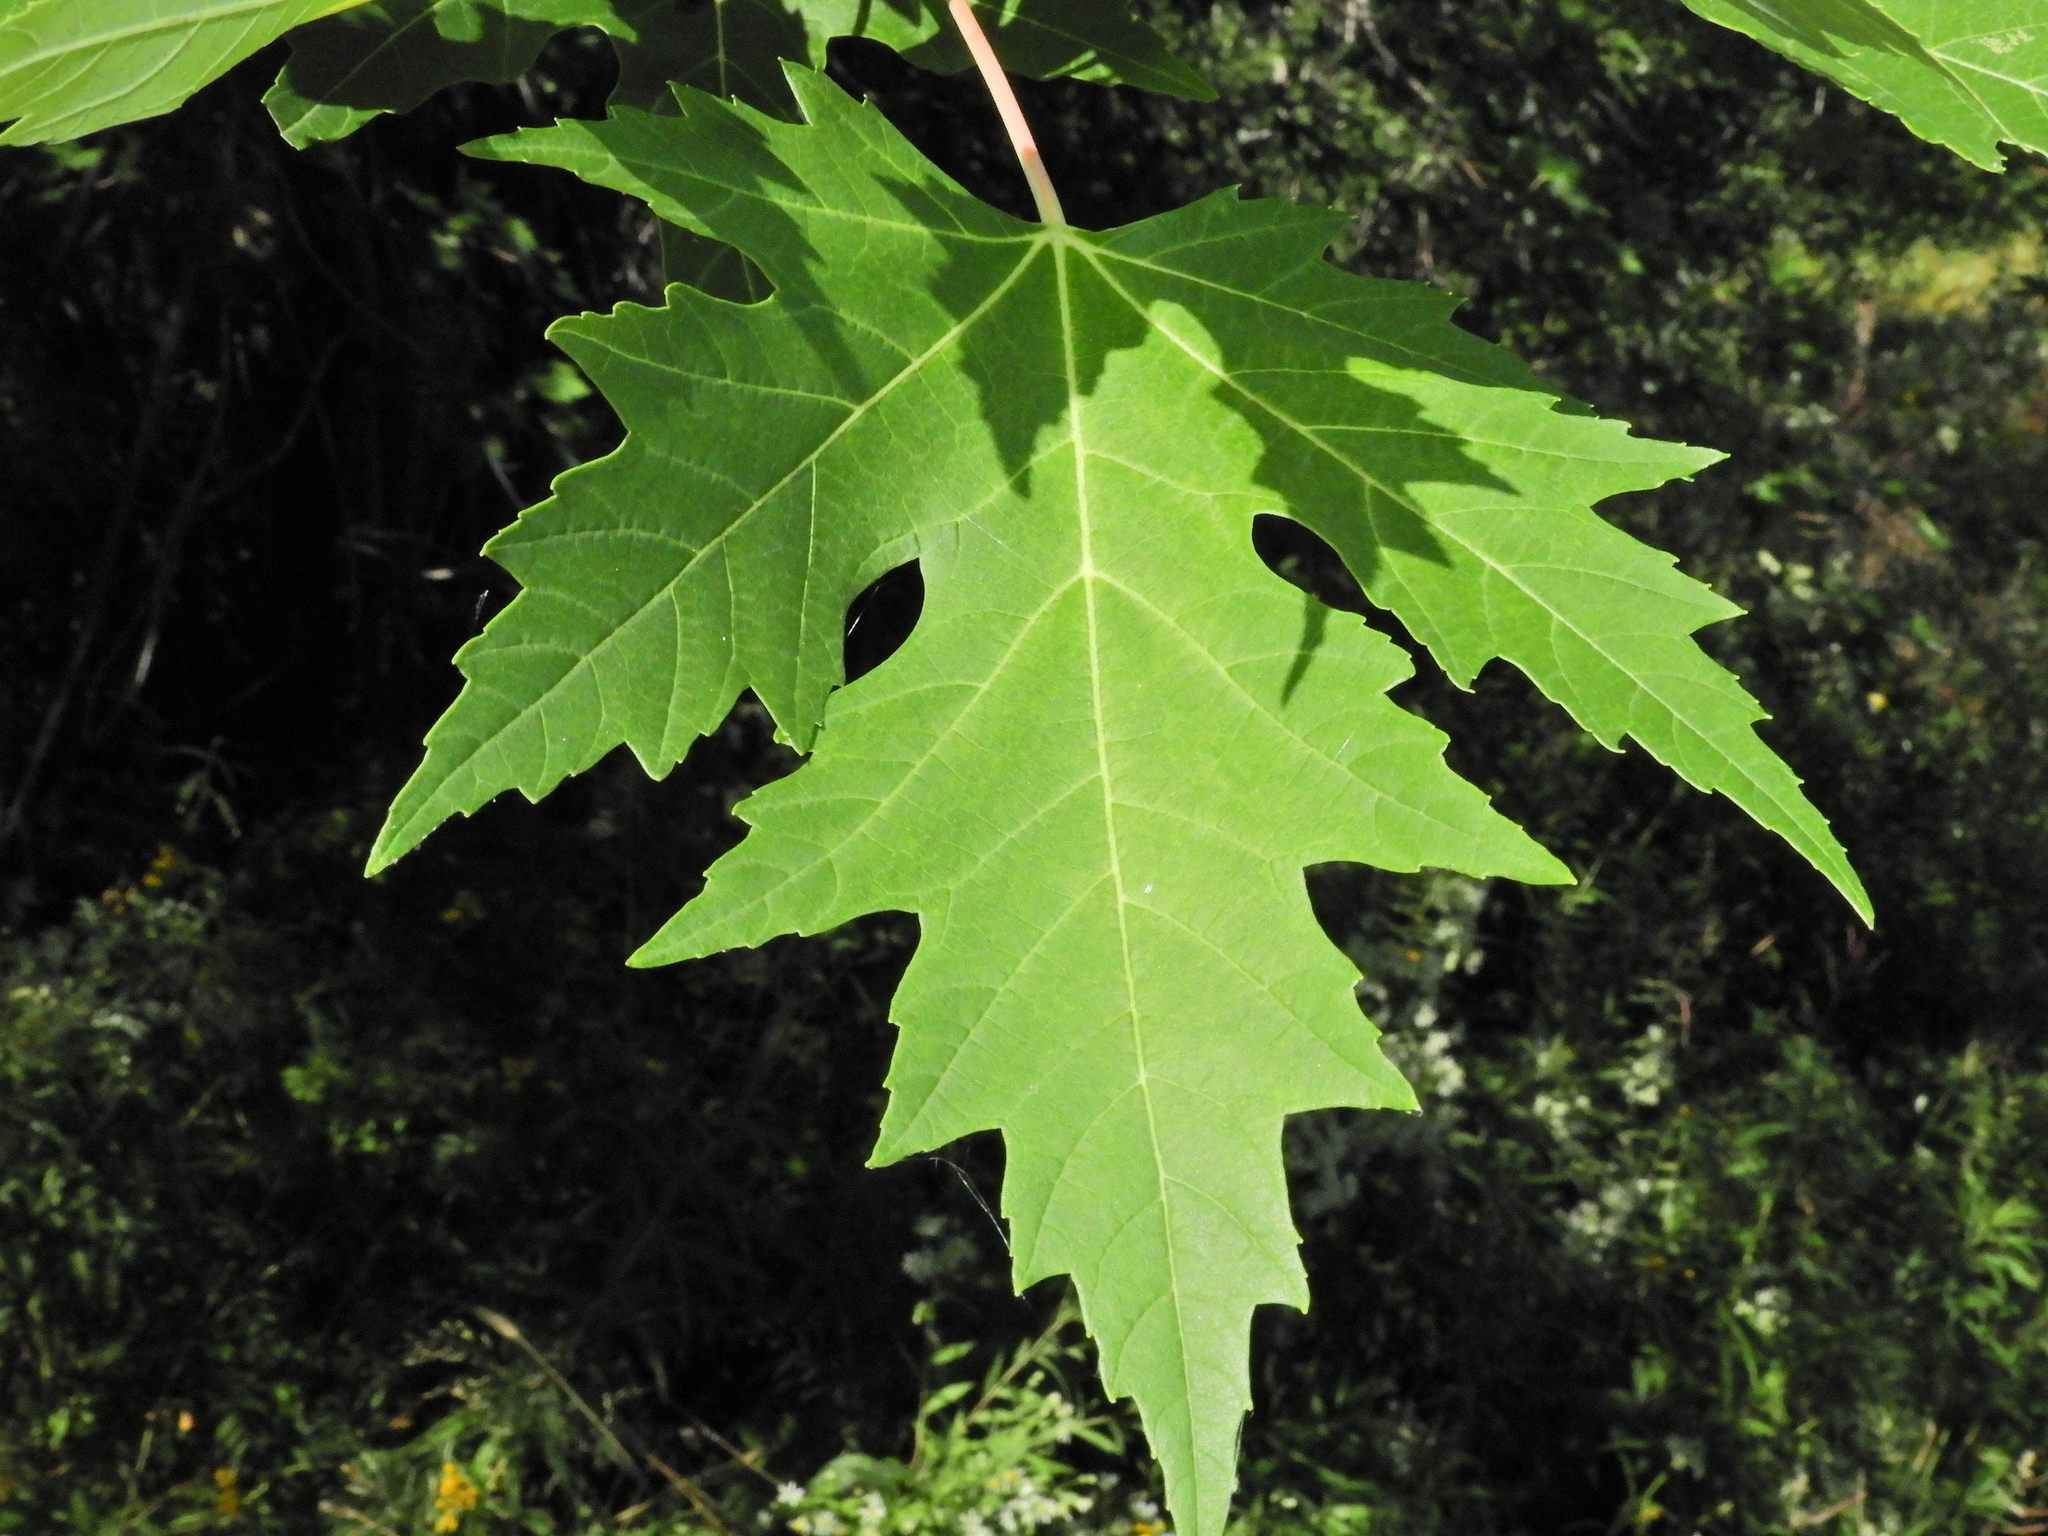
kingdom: Plantae
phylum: Tracheophyta
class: Magnoliopsida
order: Sapindales
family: Sapindaceae
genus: Acer
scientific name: Acer saccharinum
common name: Silver maple
